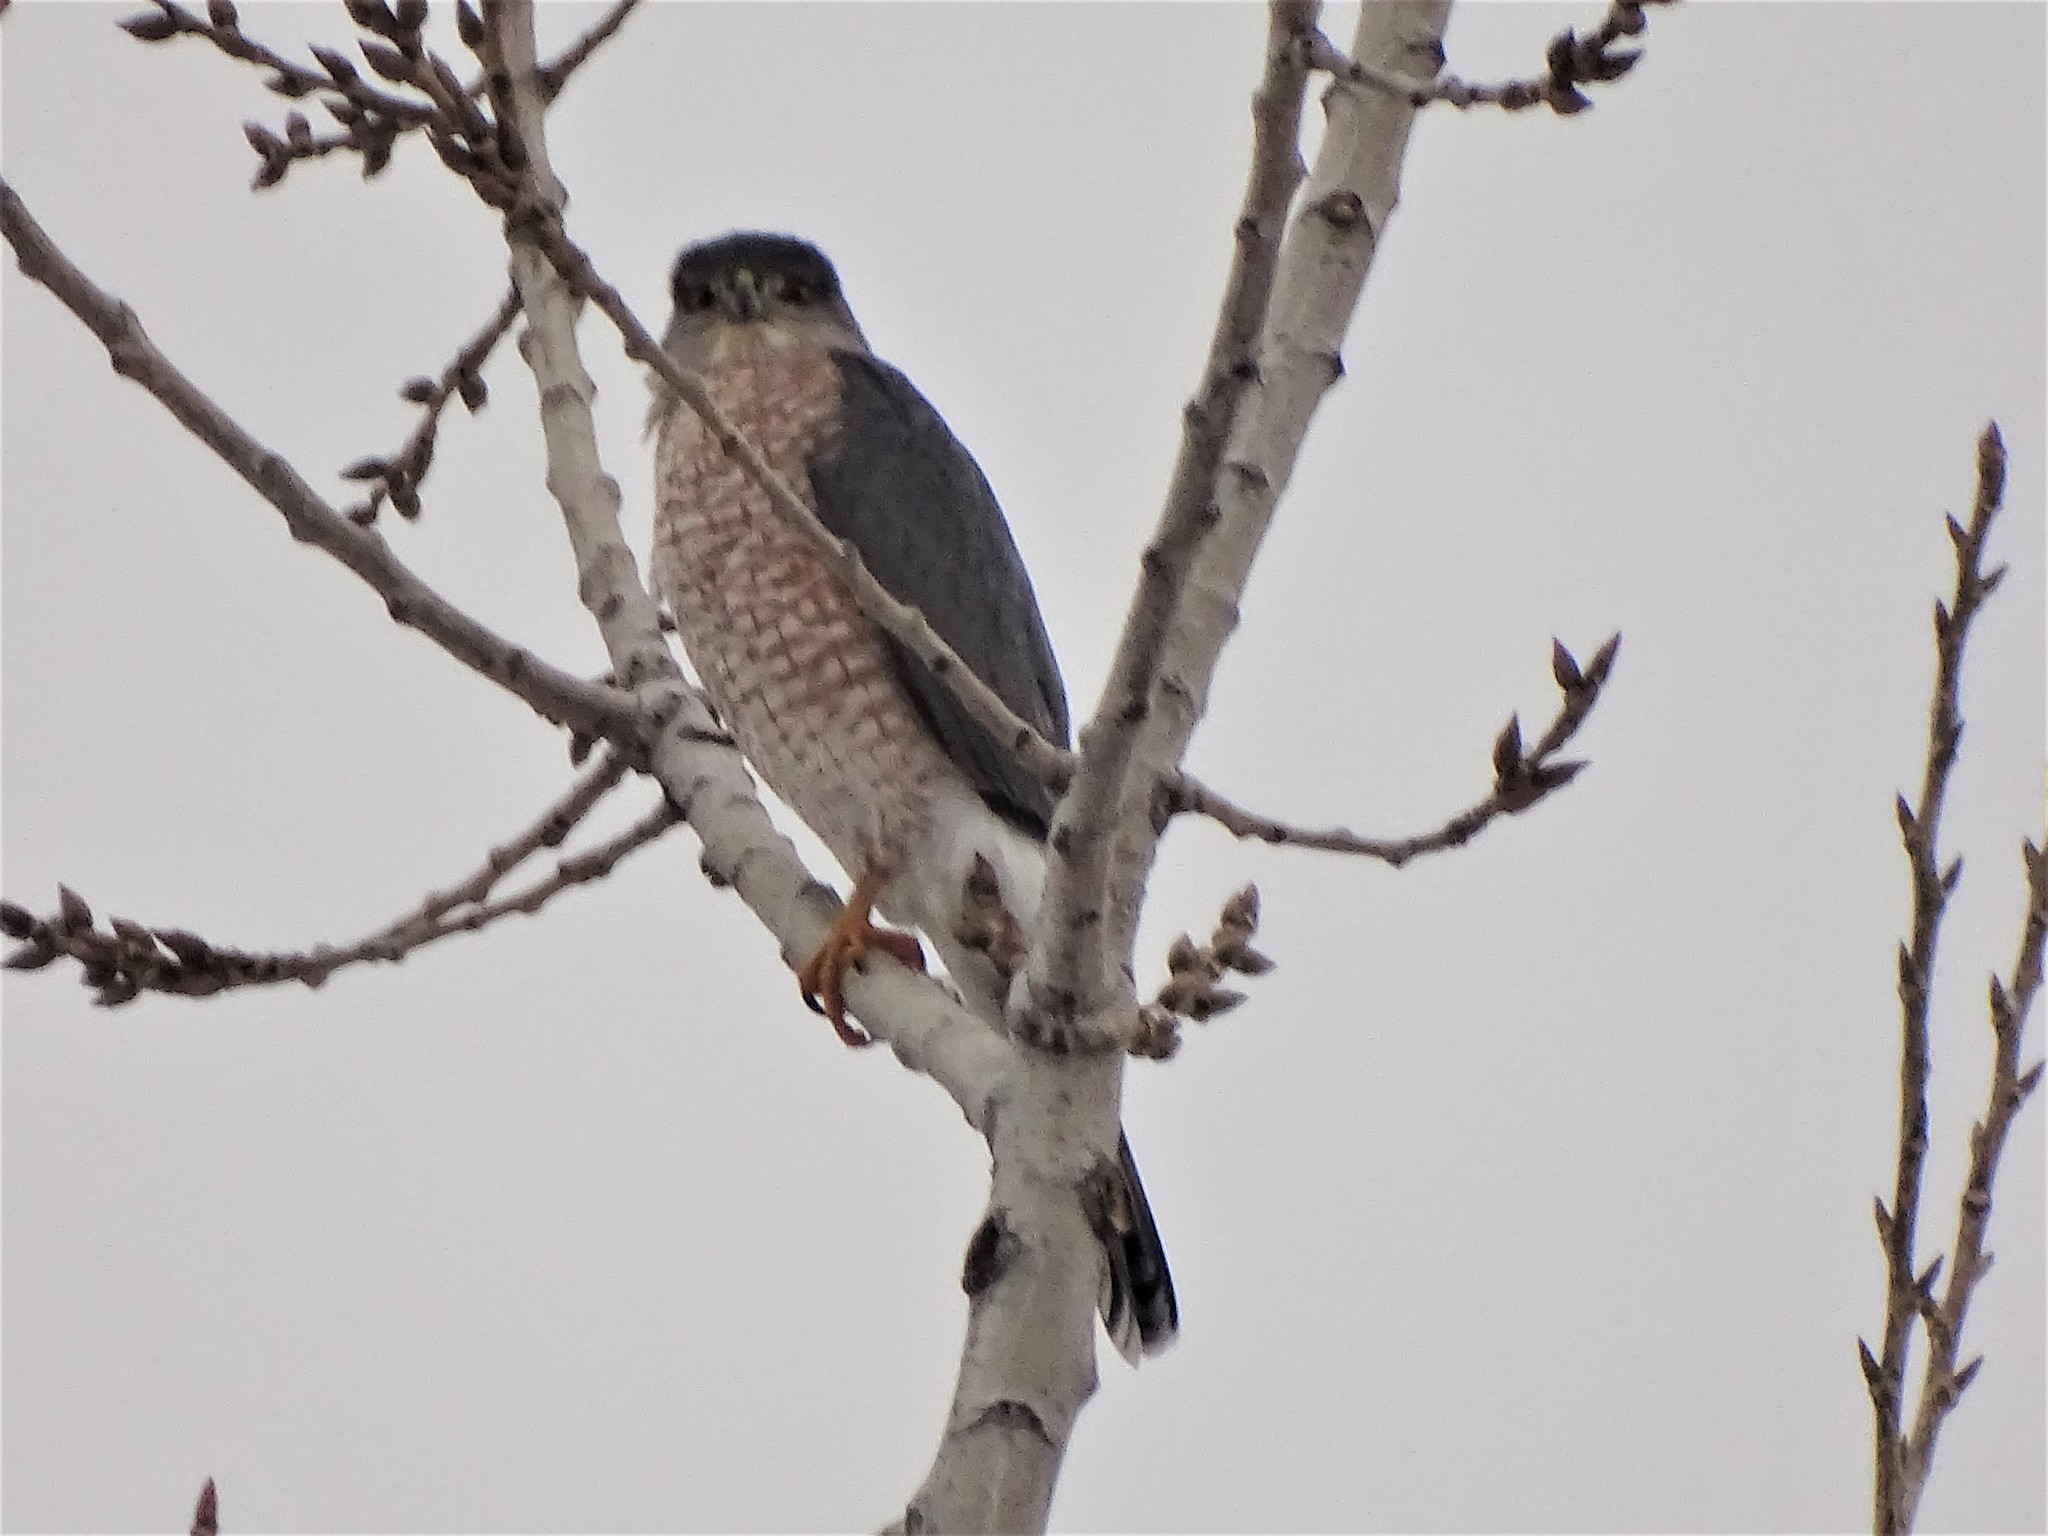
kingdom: Animalia
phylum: Chordata
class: Aves
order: Accipitriformes
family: Accipitridae
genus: Accipiter
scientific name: Accipiter cooperii
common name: Cooper's hawk
